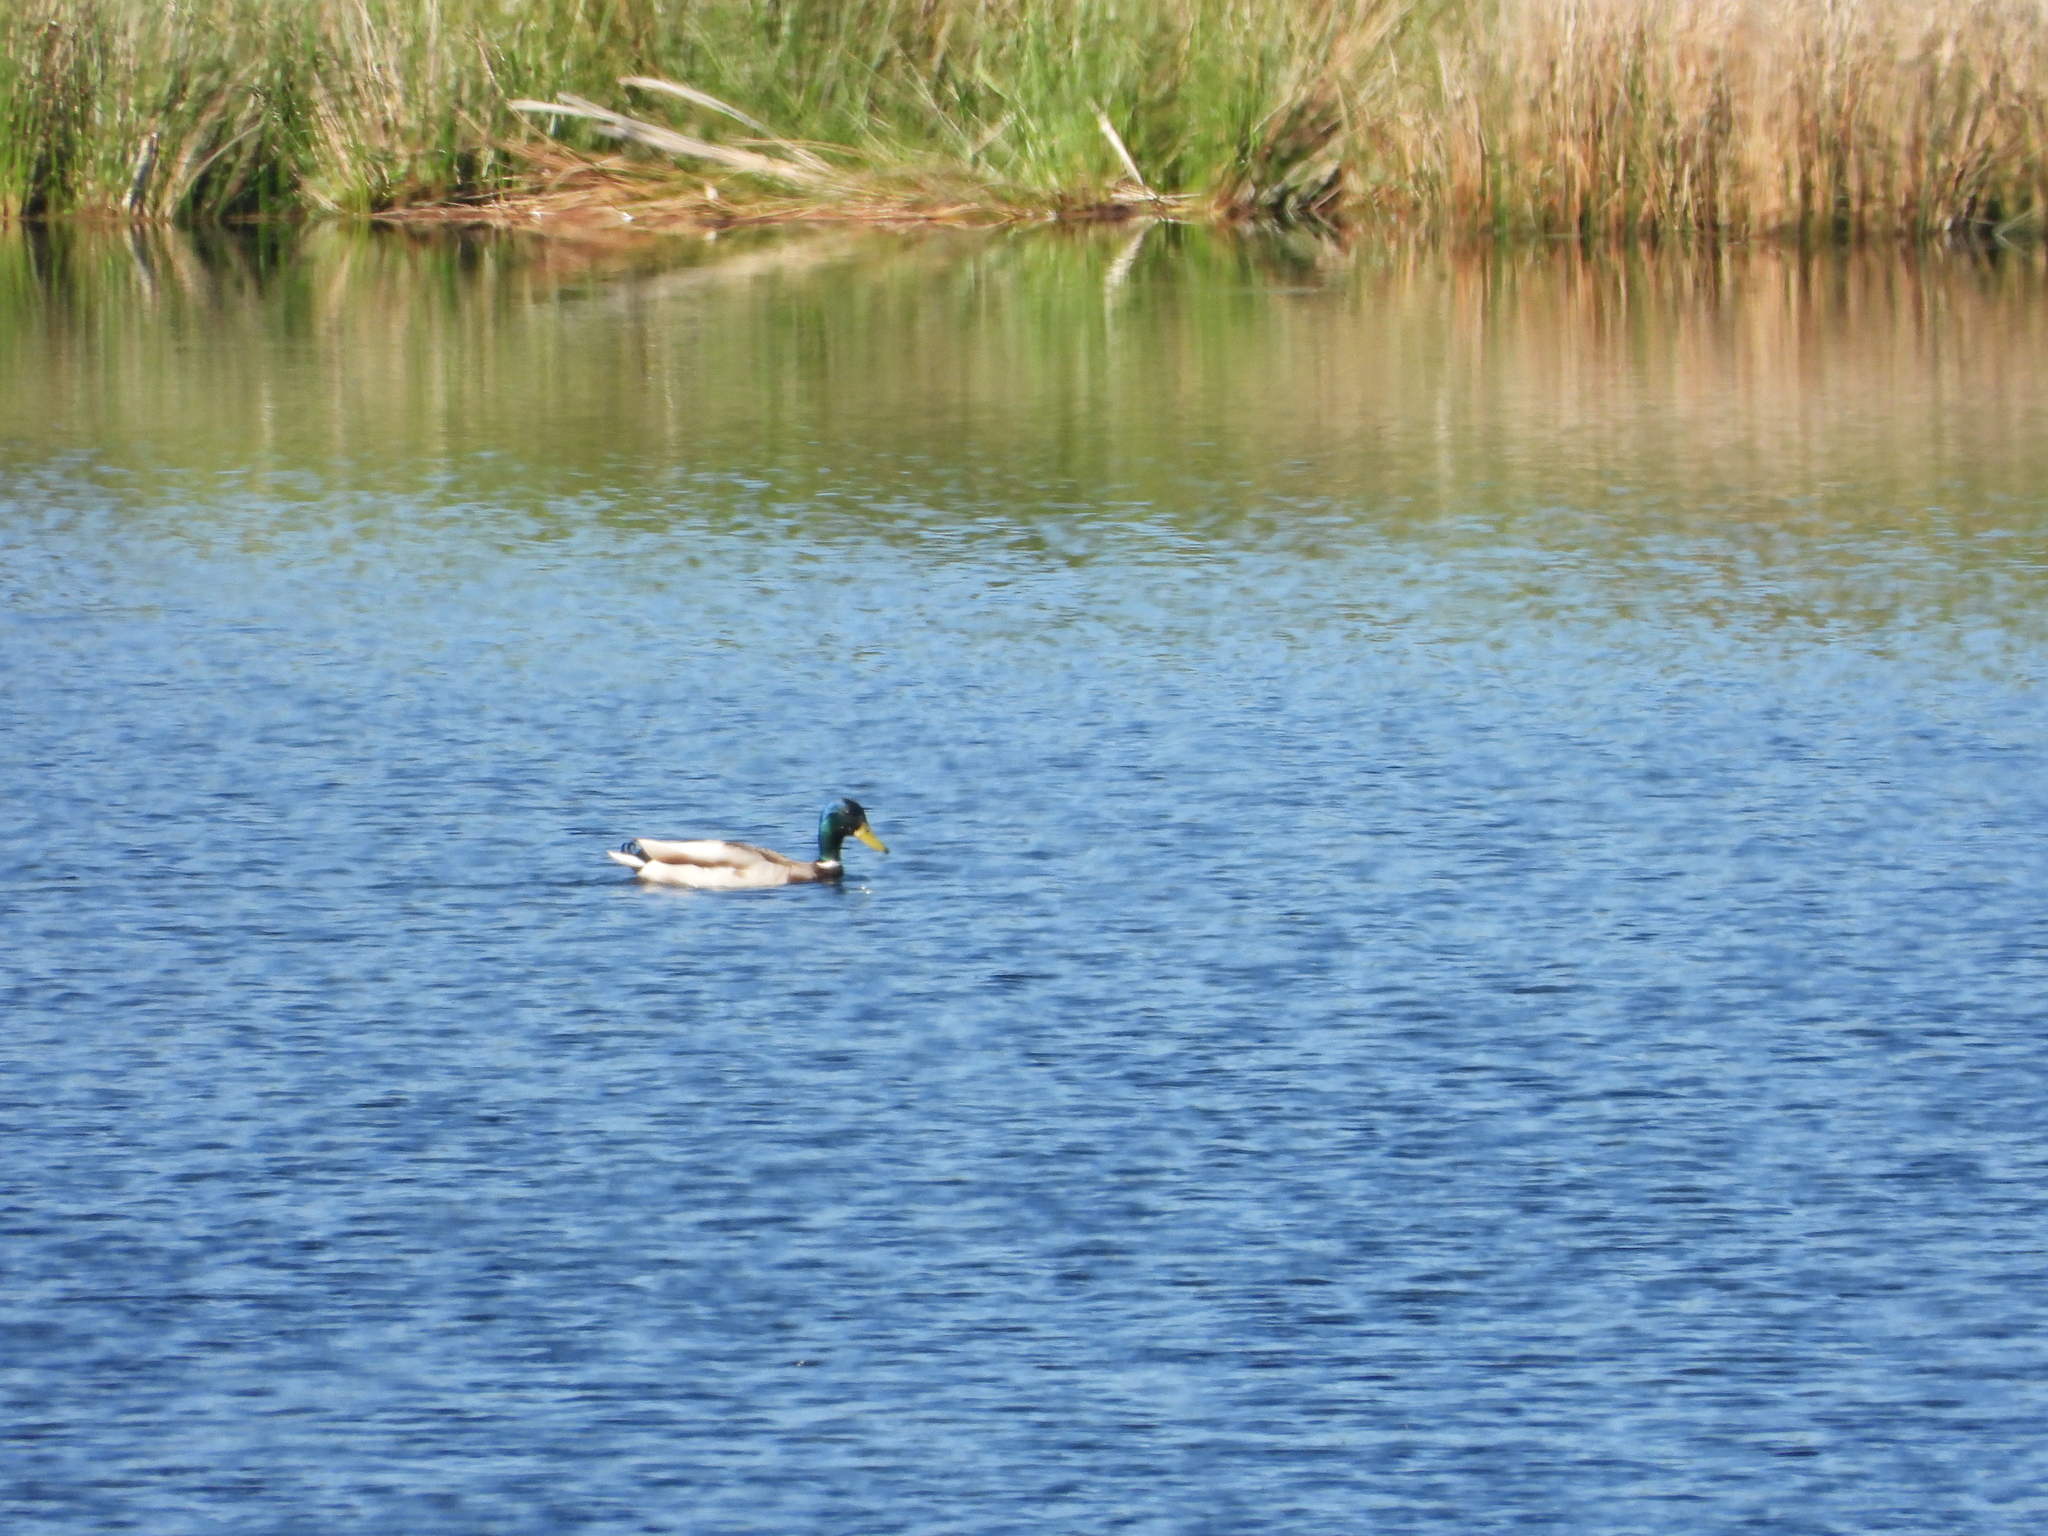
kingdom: Animalia
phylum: Chordata
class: Aves
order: Anseriformes
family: Anatidae
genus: Anas
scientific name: Anas platyrhynchos
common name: Mallard
